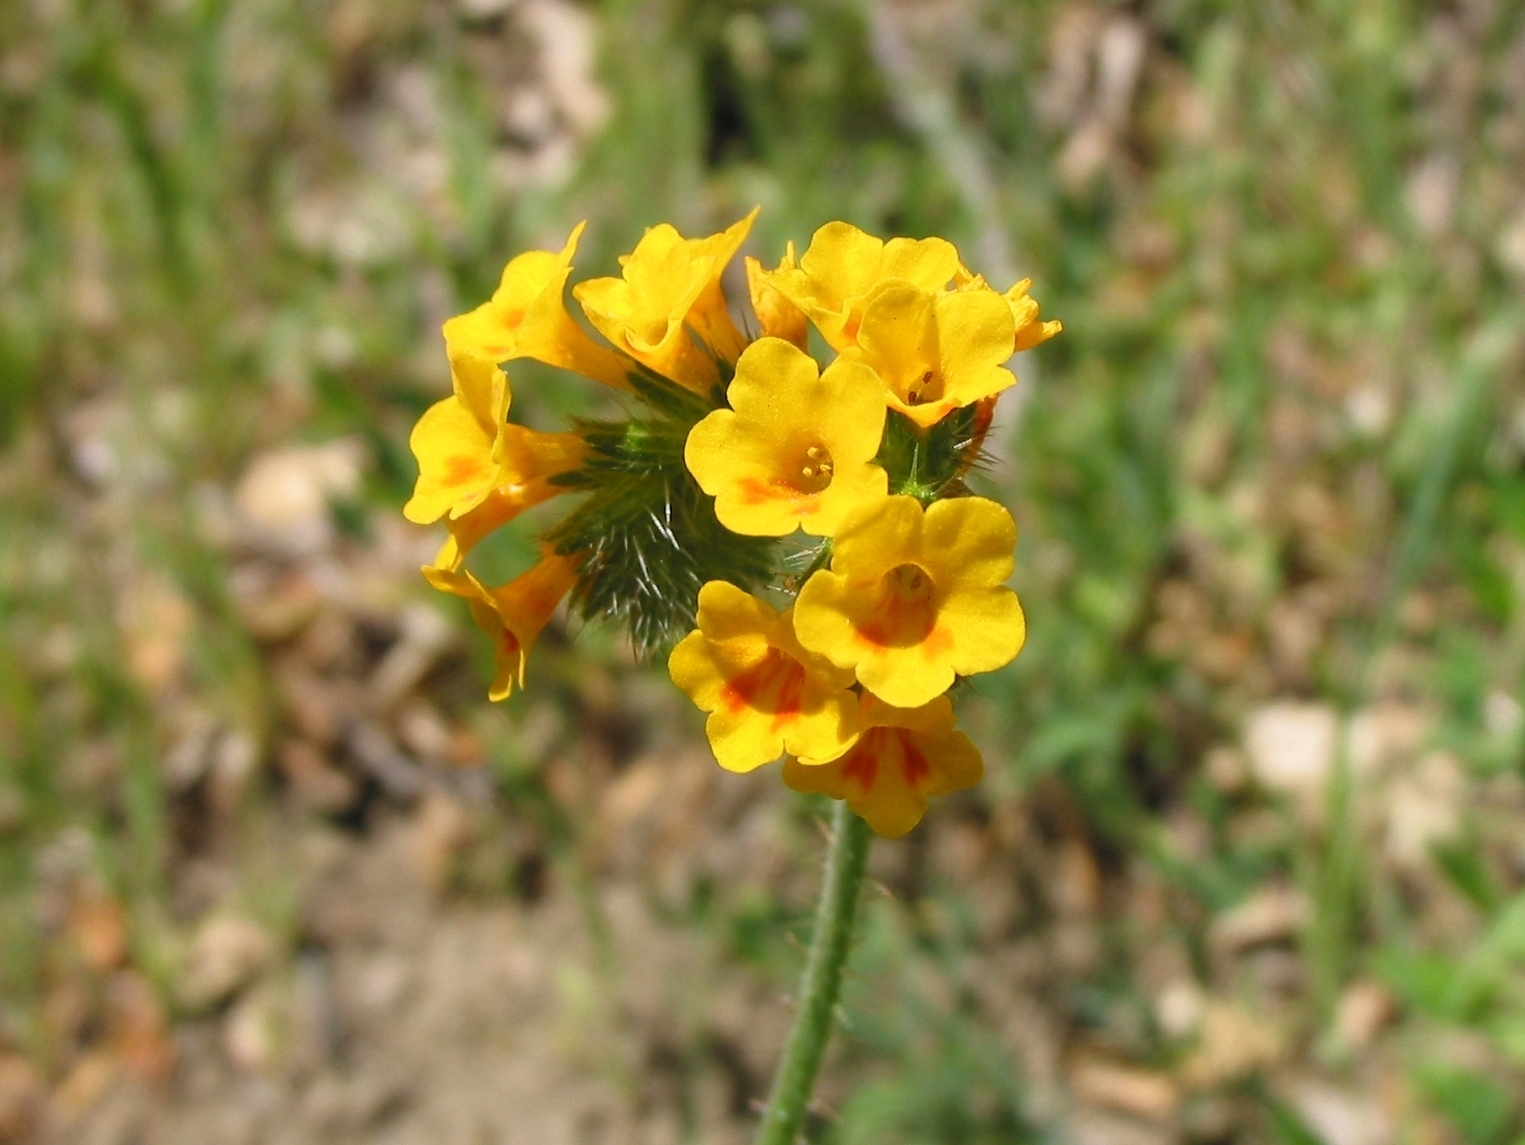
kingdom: Plantae
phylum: Tracheophyta
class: Magnoliopsida
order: Boraginales
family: Boraginaceae
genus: Amsinckia
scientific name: Amsinckia menziesii
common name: Menzies' fiddleneck
